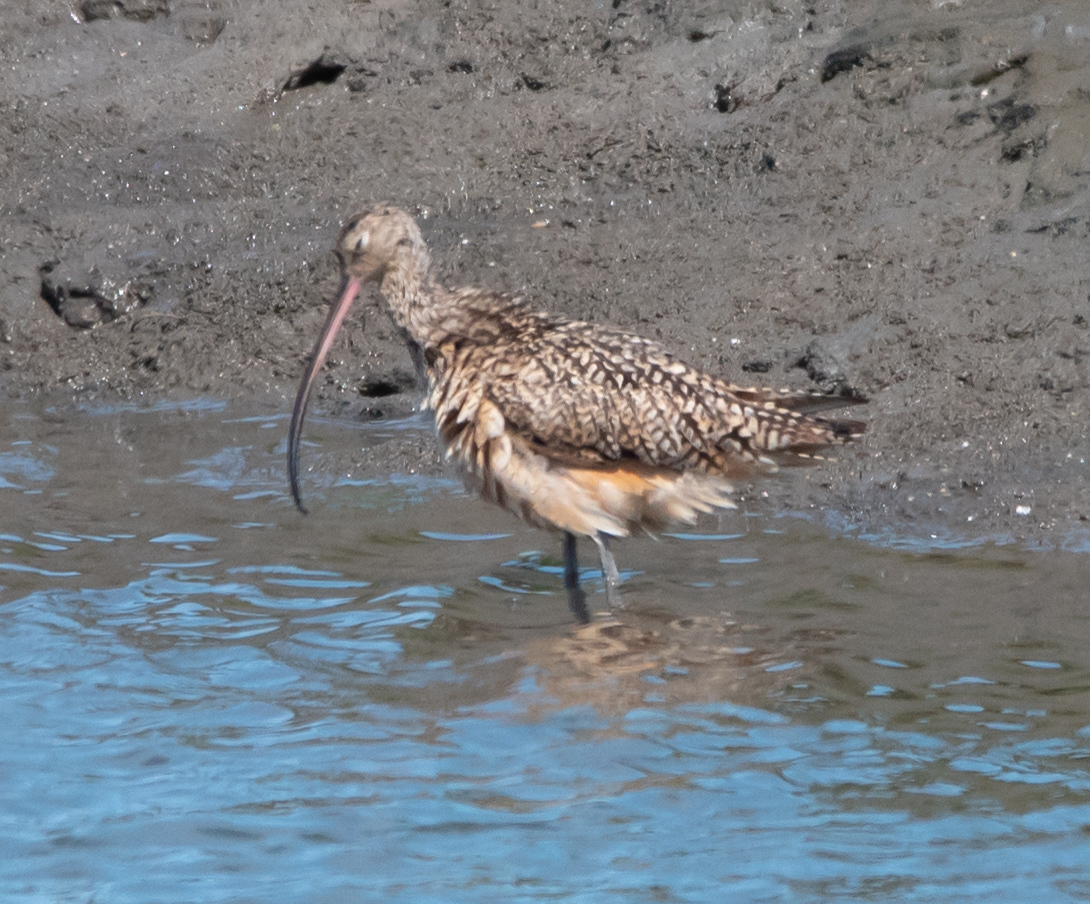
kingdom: Animalia
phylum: Chordata
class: Aves
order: Charadriiformes
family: Scolopacidae
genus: Numenius
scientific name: Numenius americanus
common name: Long-billed curlew
